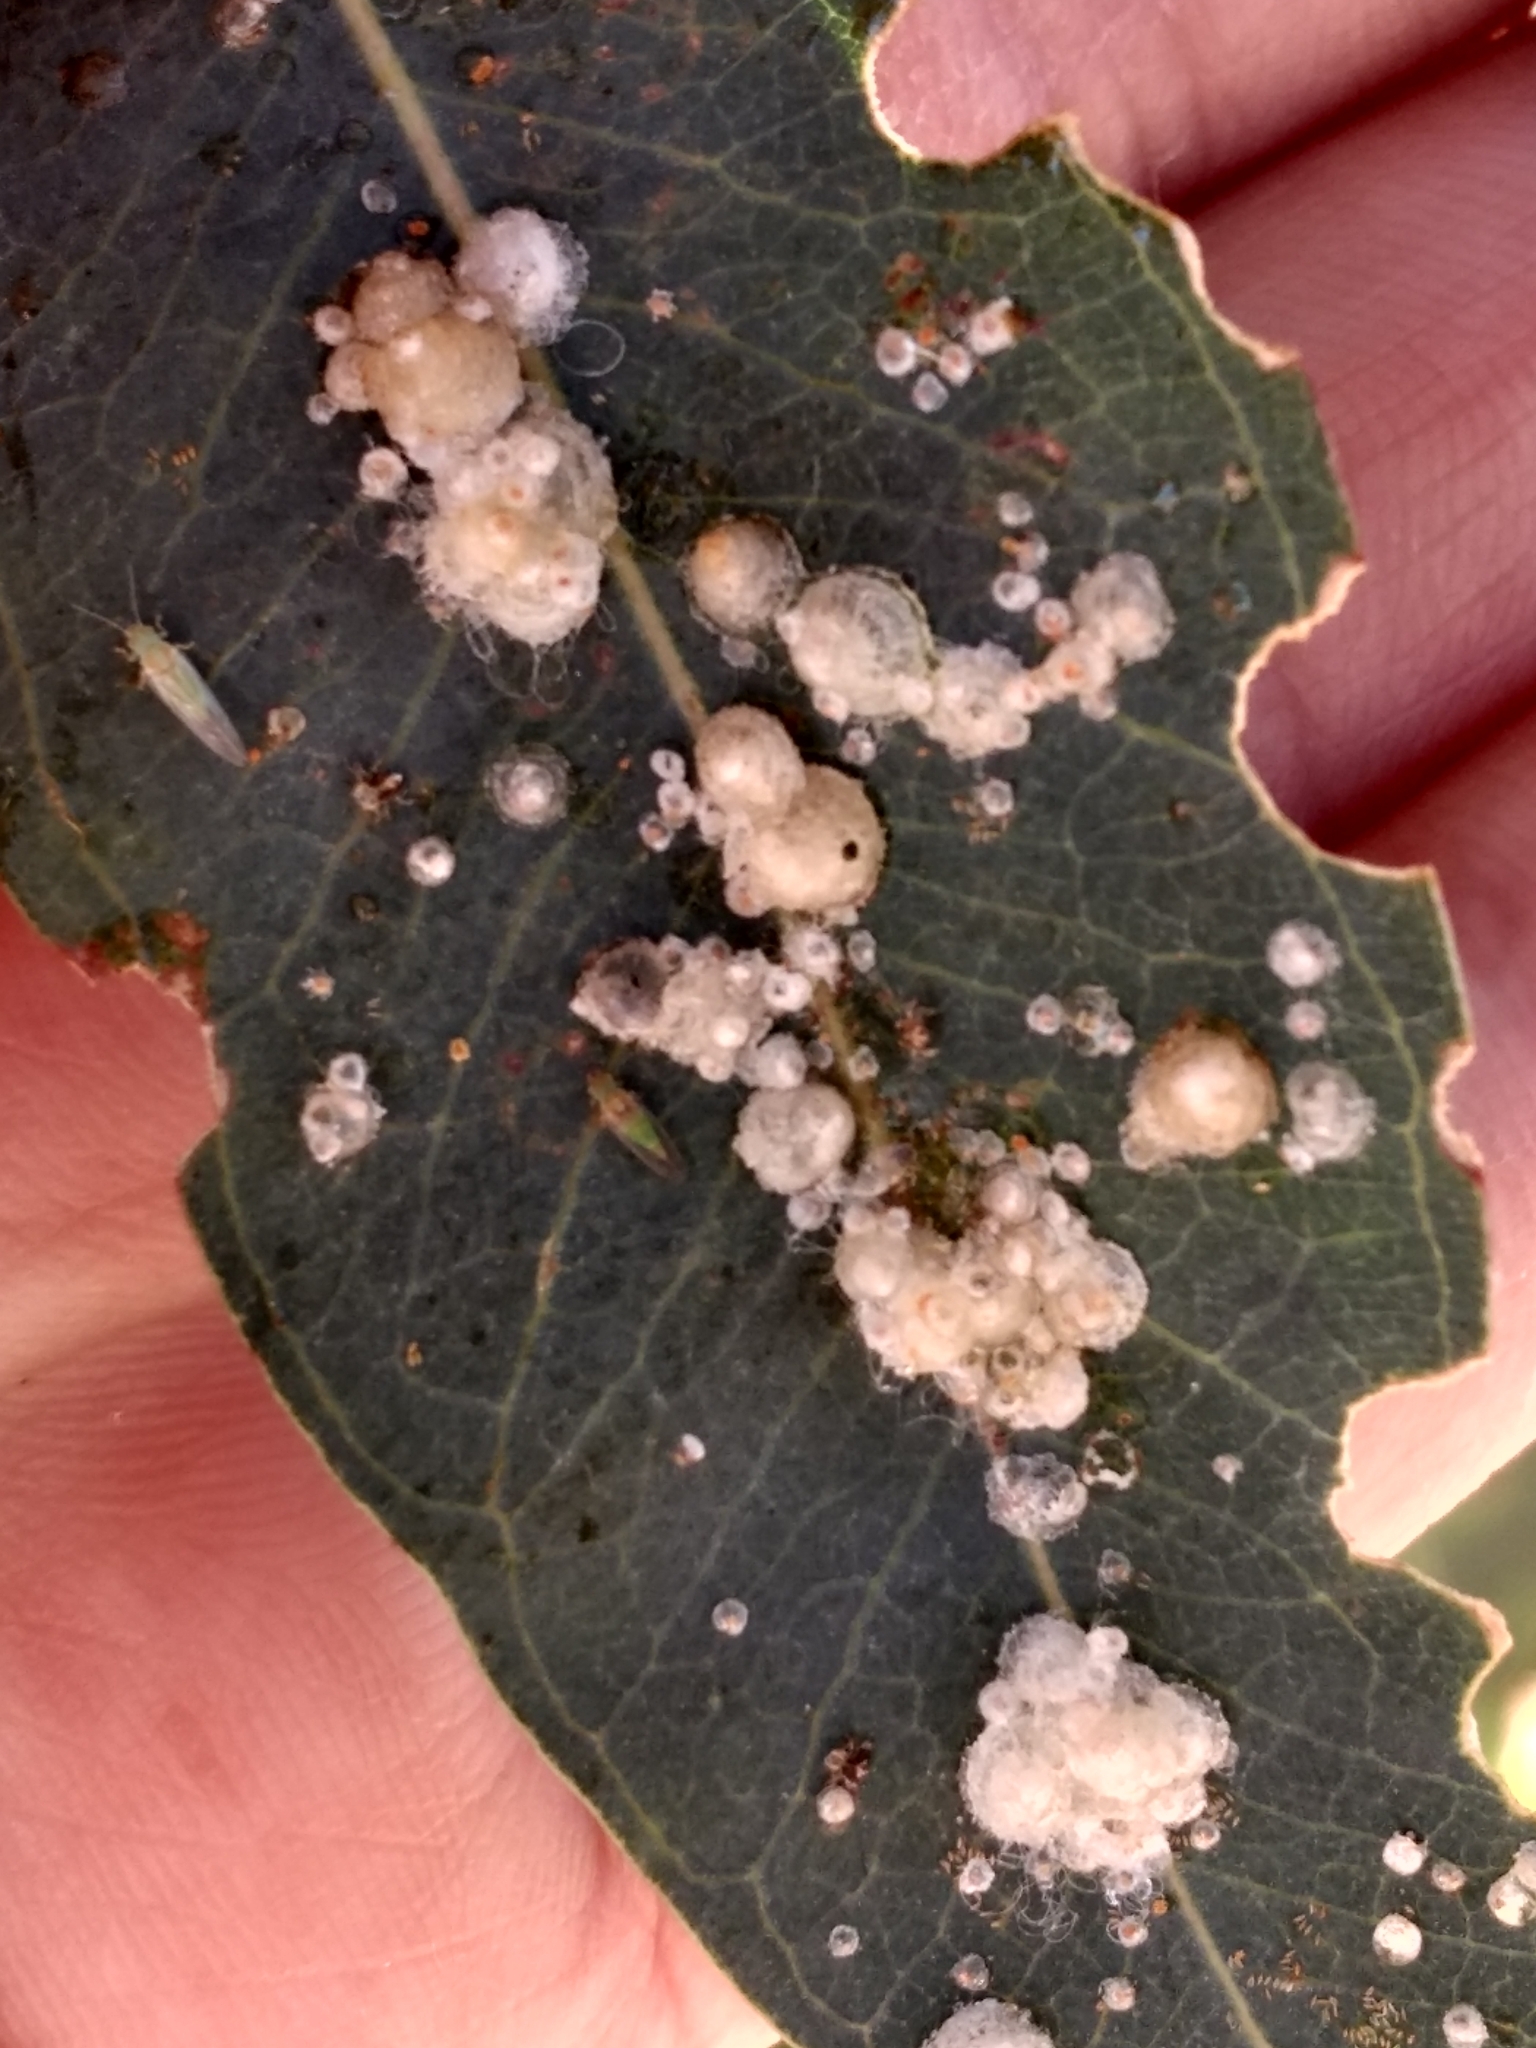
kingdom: Animalia
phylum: Arthropoda
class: Insecta
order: Hemiptera
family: Aphalaridae
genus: Glycaspis
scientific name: Glycaspis brimblecombei
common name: Red gum lerp psyllid
